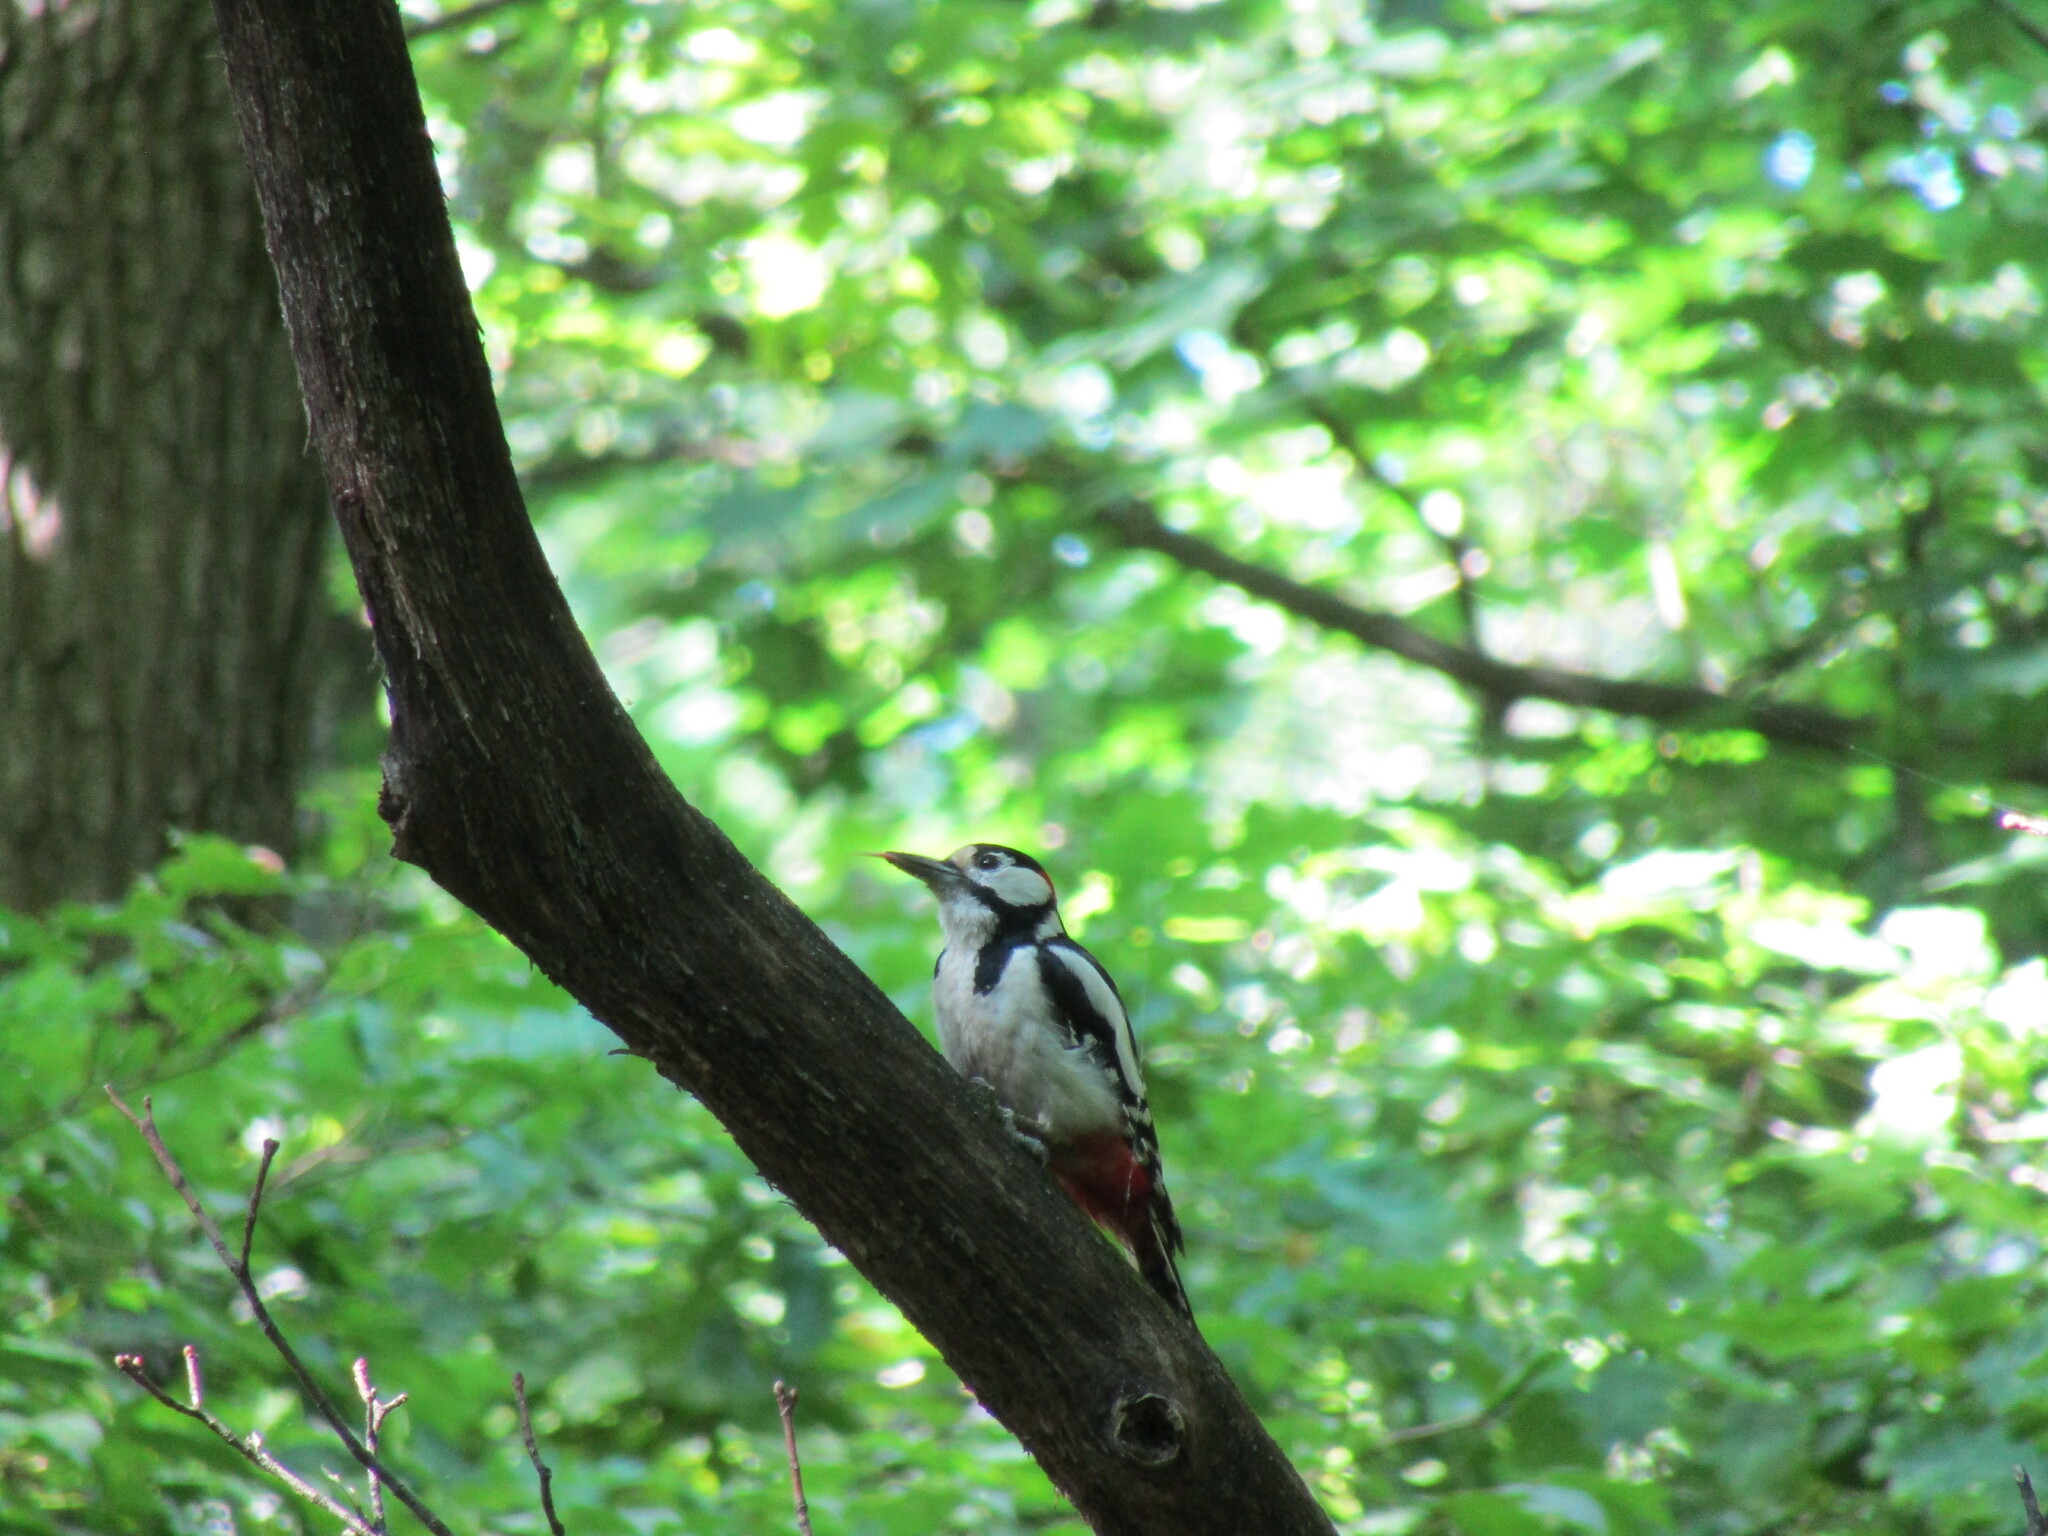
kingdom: Animalia
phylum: Chordata
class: Aves
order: Piciformes
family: Picidae
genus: Dendrocopos
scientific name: Dendrocopos major
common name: Great spotted woodpecker
